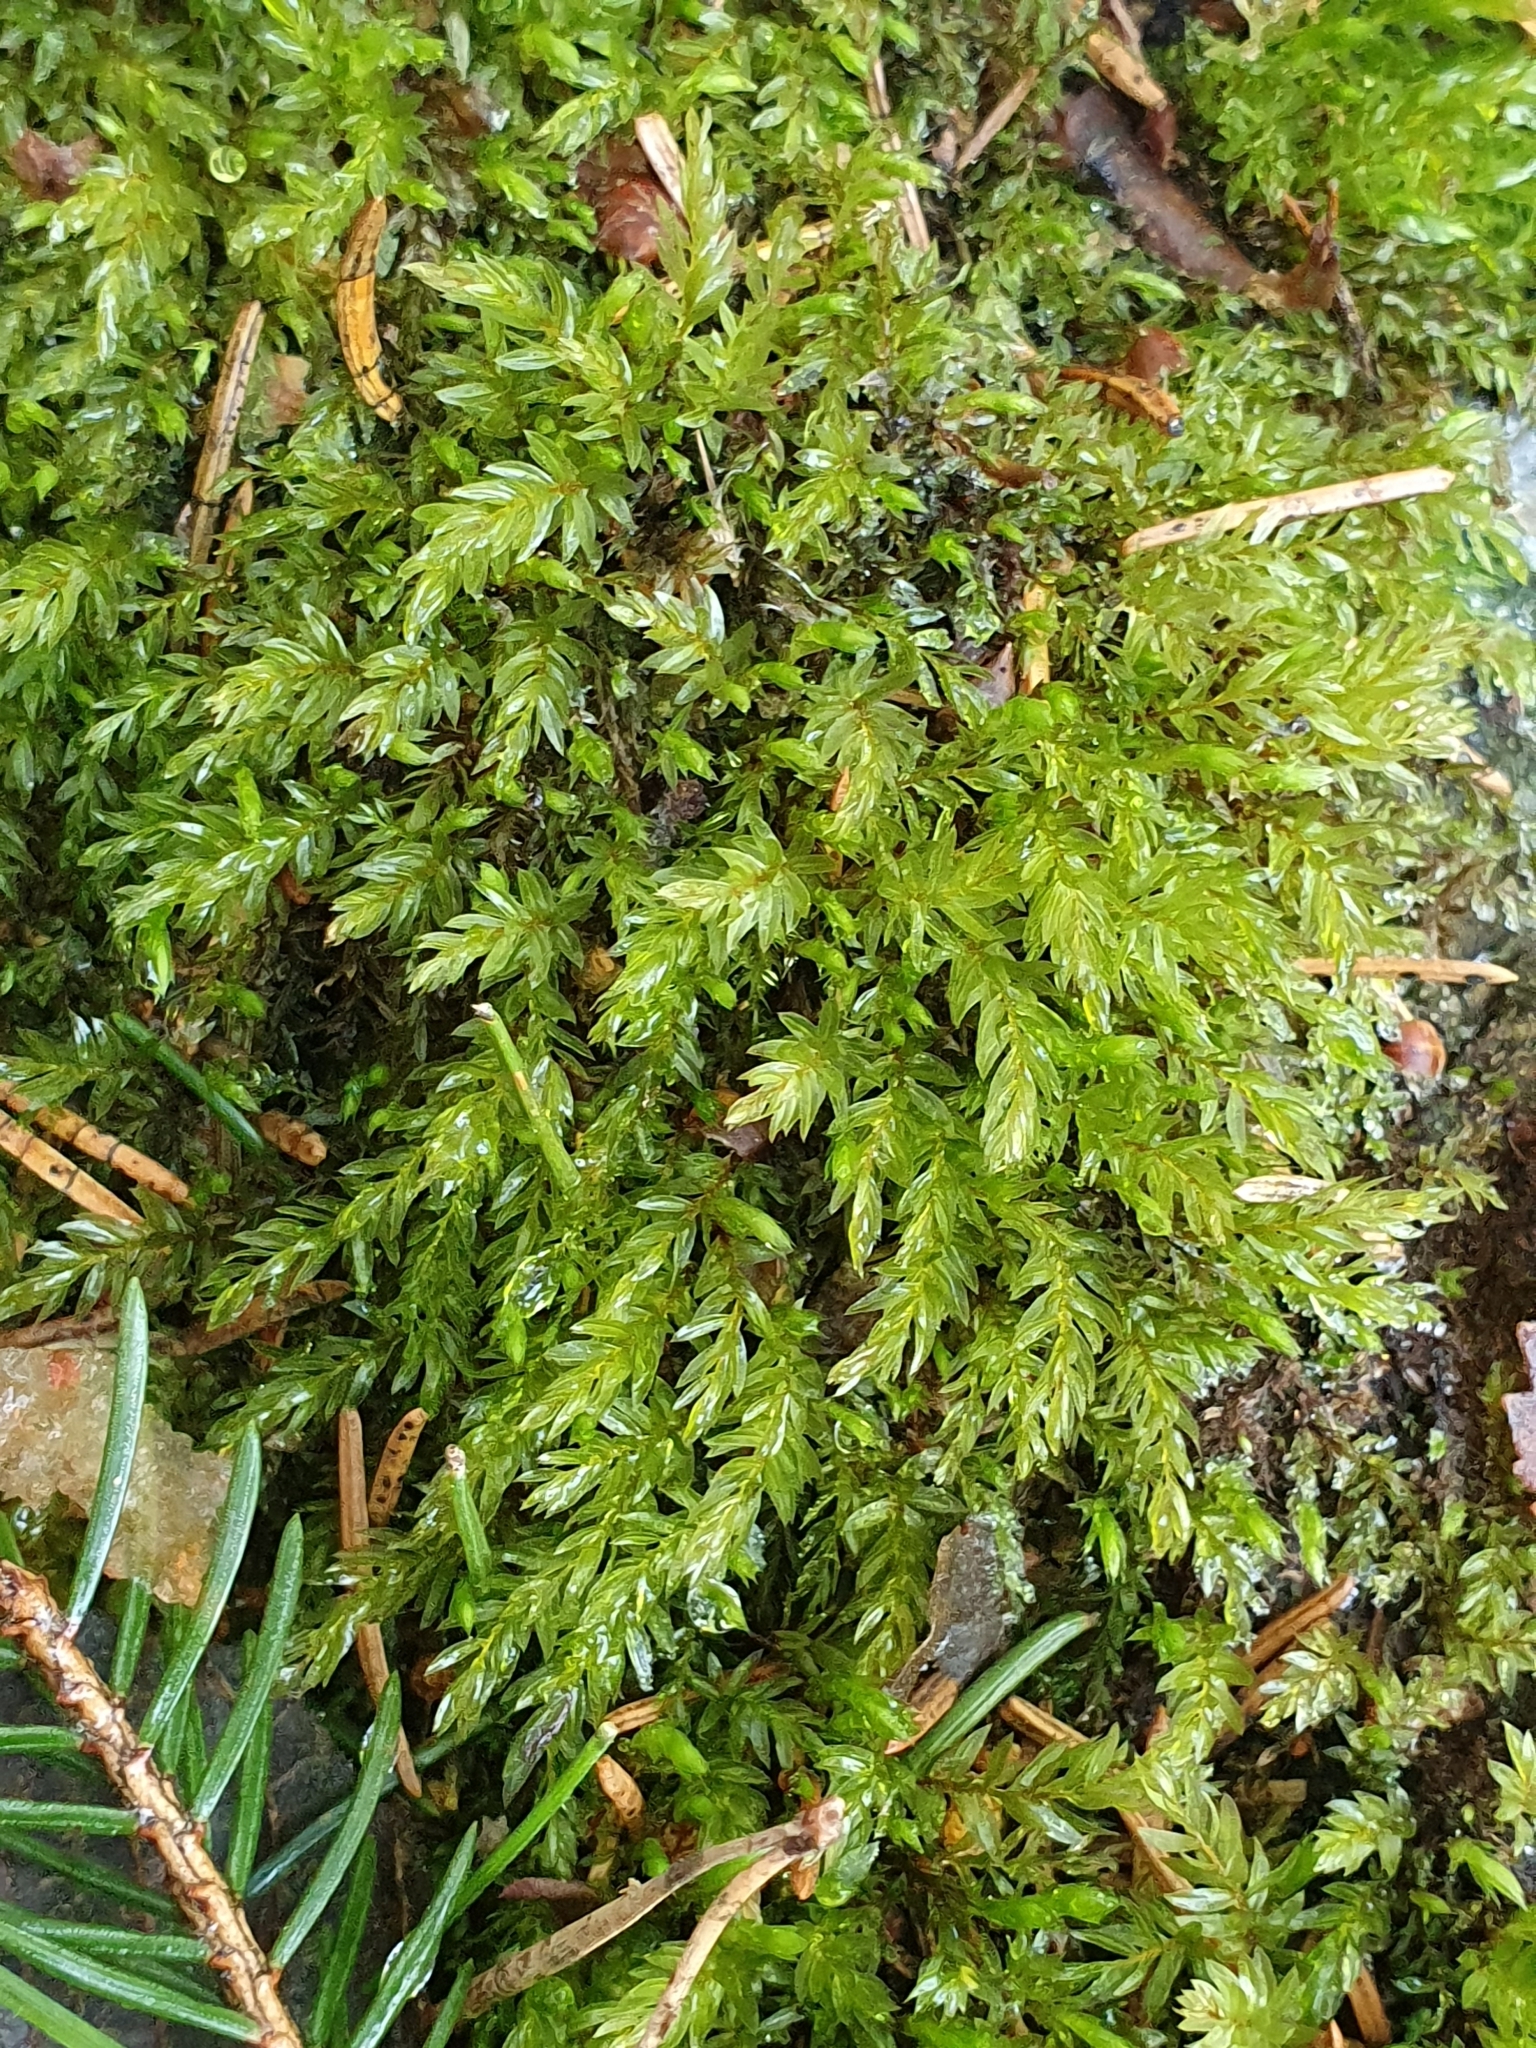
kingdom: Plantae
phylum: Bryophyta
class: Bryopsida
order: Bryales
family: Mniaceae
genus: Mnium
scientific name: Mnium hornum
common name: Swan's-neck leafy moss
